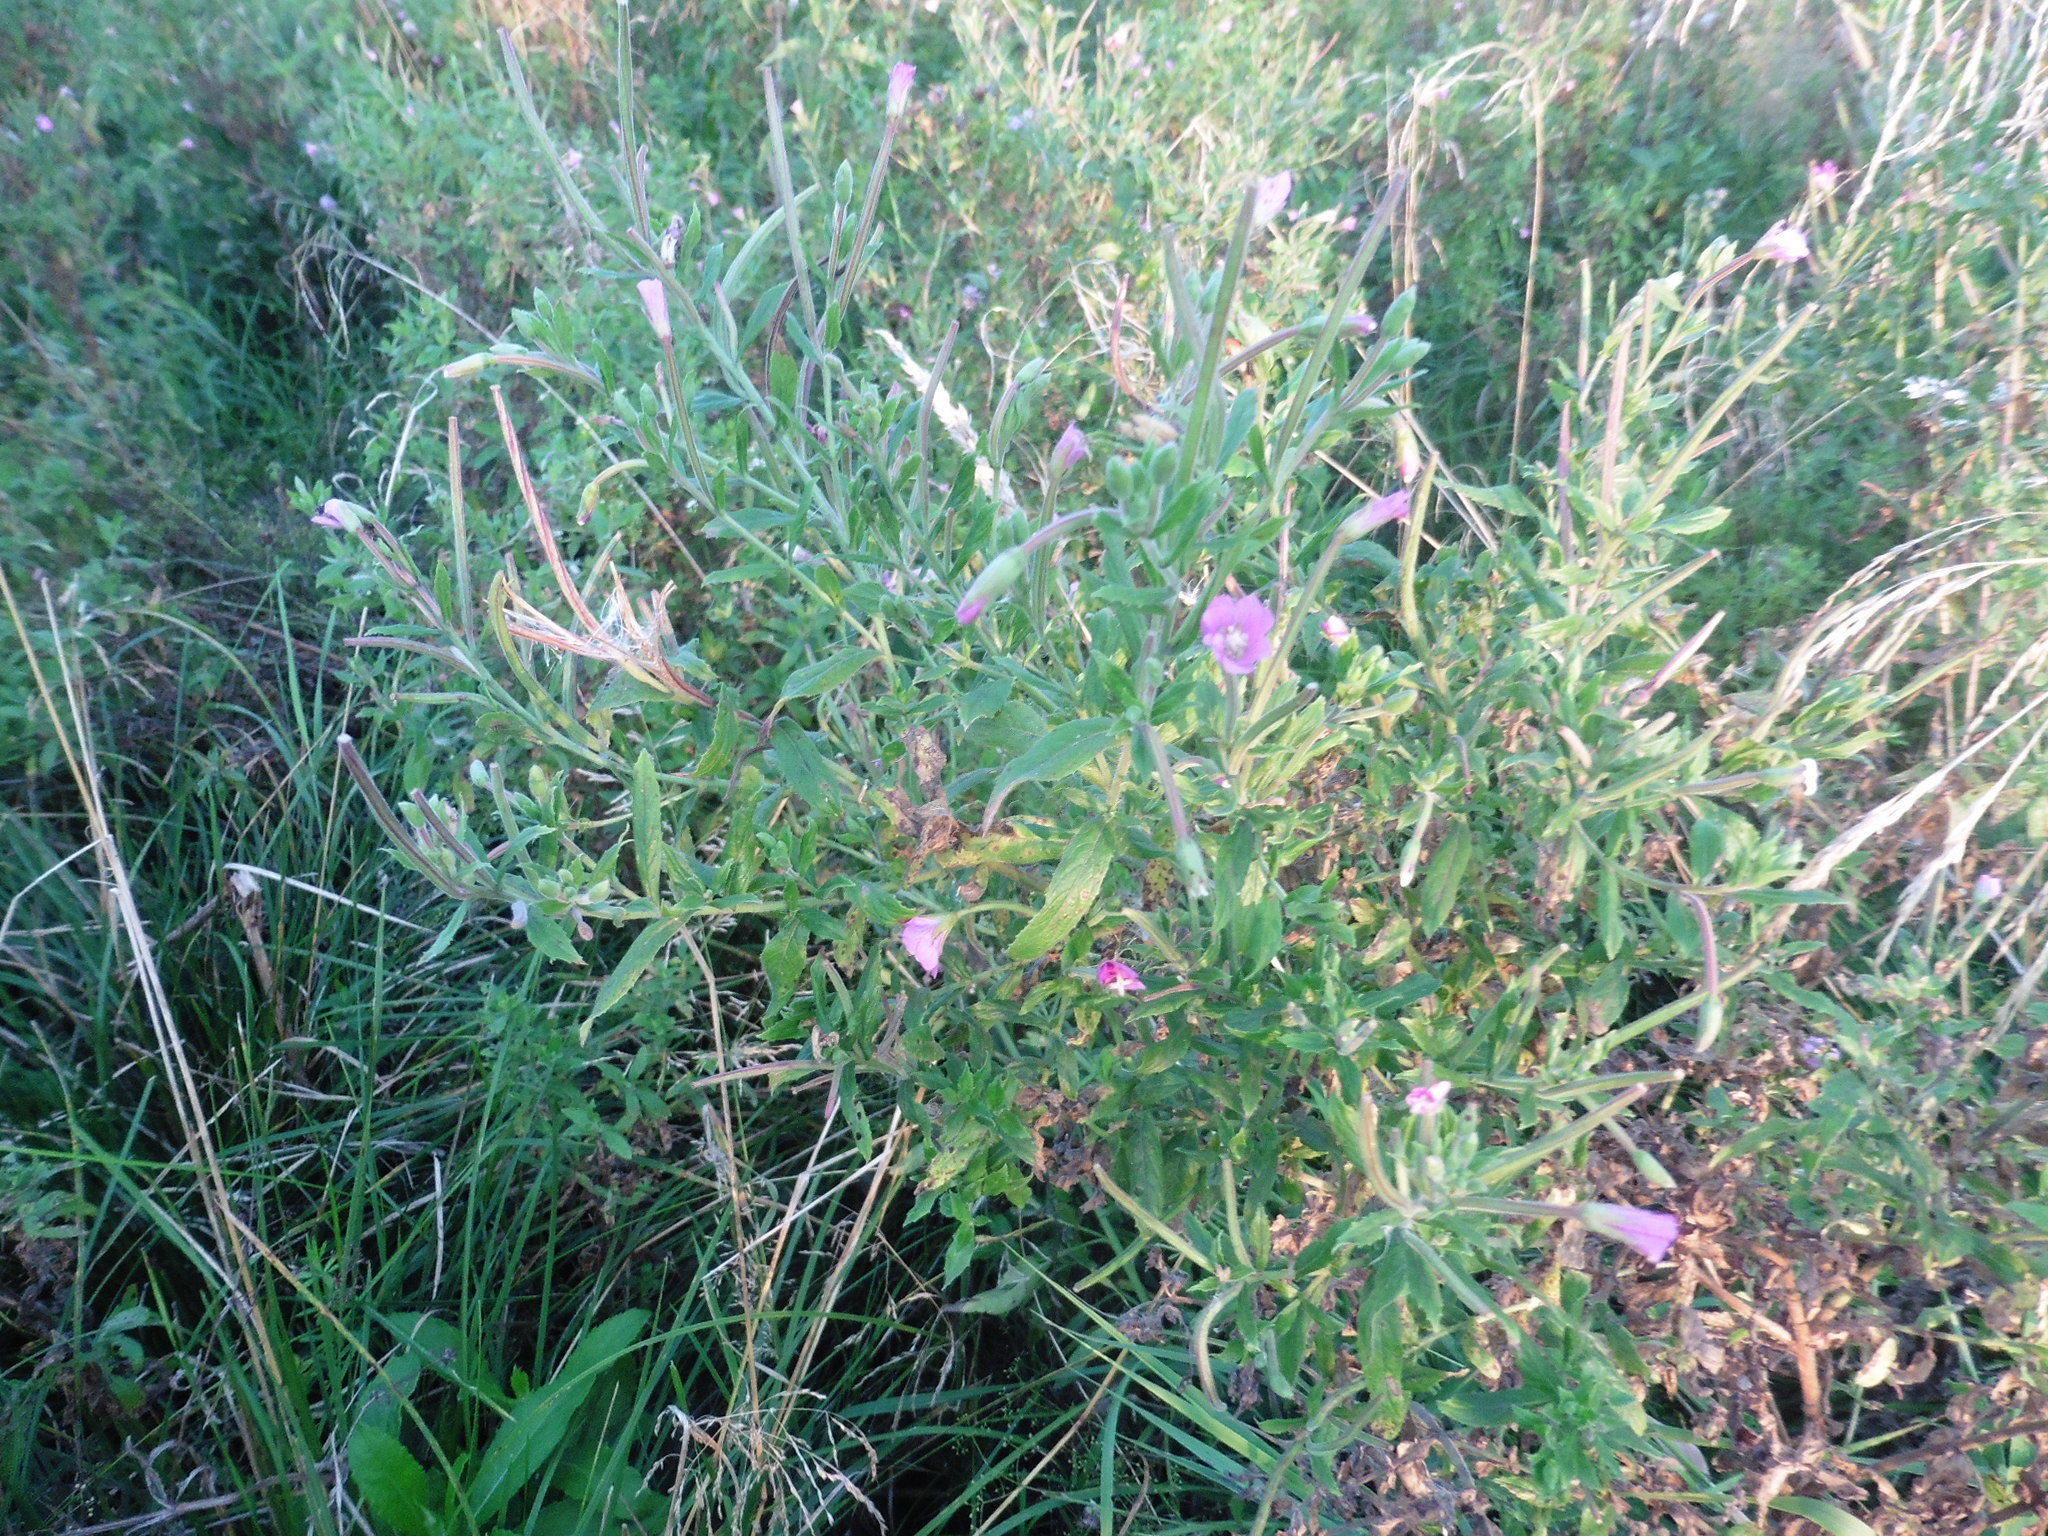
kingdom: Plantae
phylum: Tracheophyta
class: Magnoliopsida
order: Myrtales
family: Onagraceae
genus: Epilobium
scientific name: Epilobium hirsutum
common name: Great willowherb
